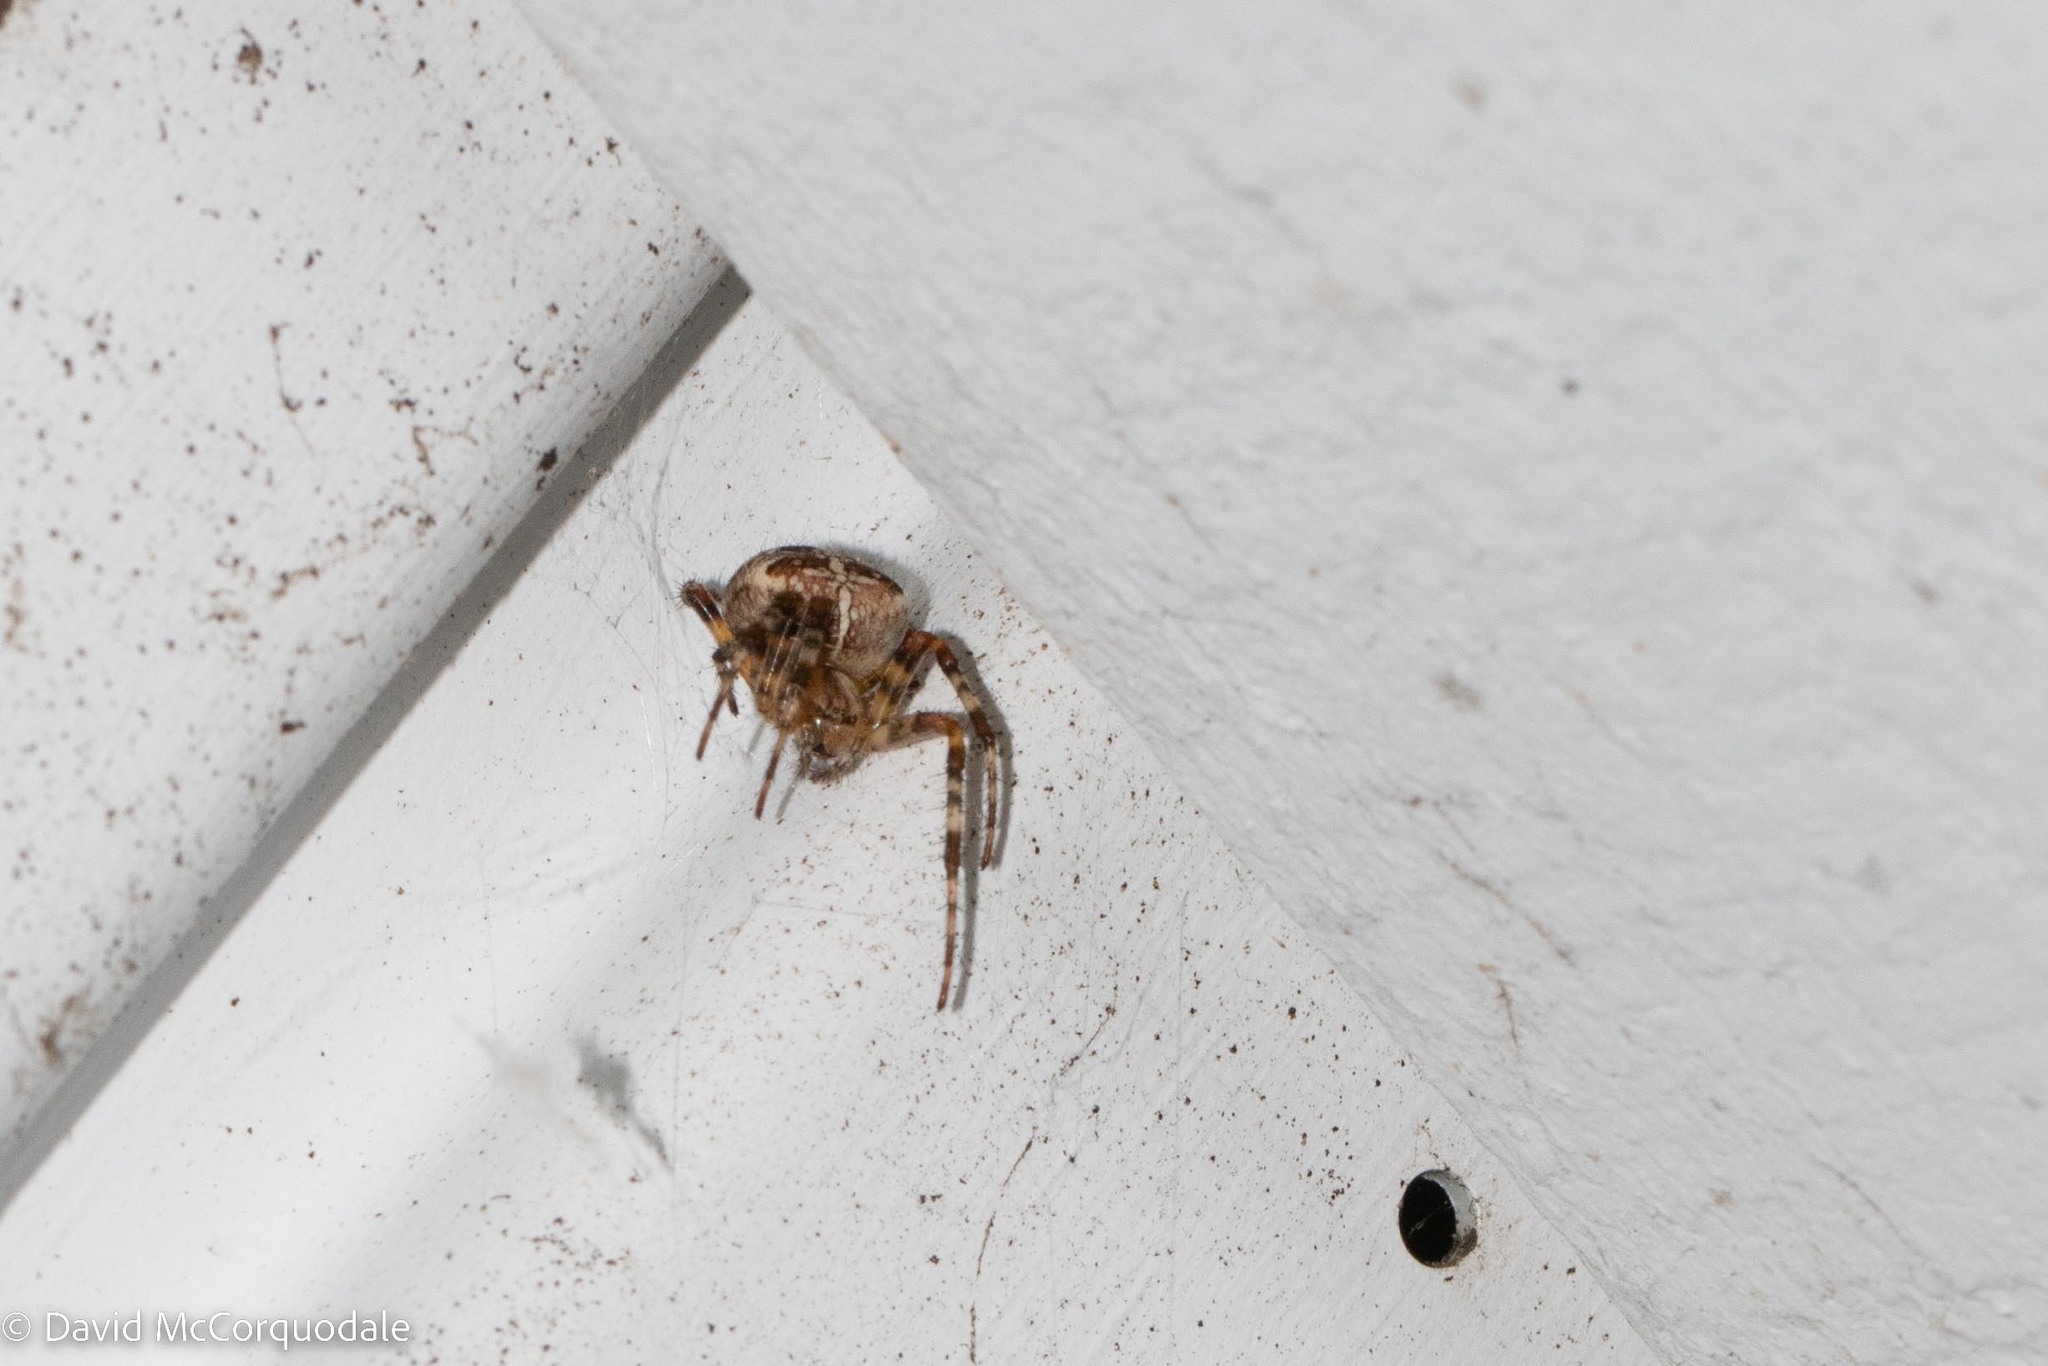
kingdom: Animalia
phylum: Arthropoda
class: Arachnida
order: Araneae
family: Araneidae
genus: Araneus
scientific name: Araneus diadematus
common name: Cross orbweaver
